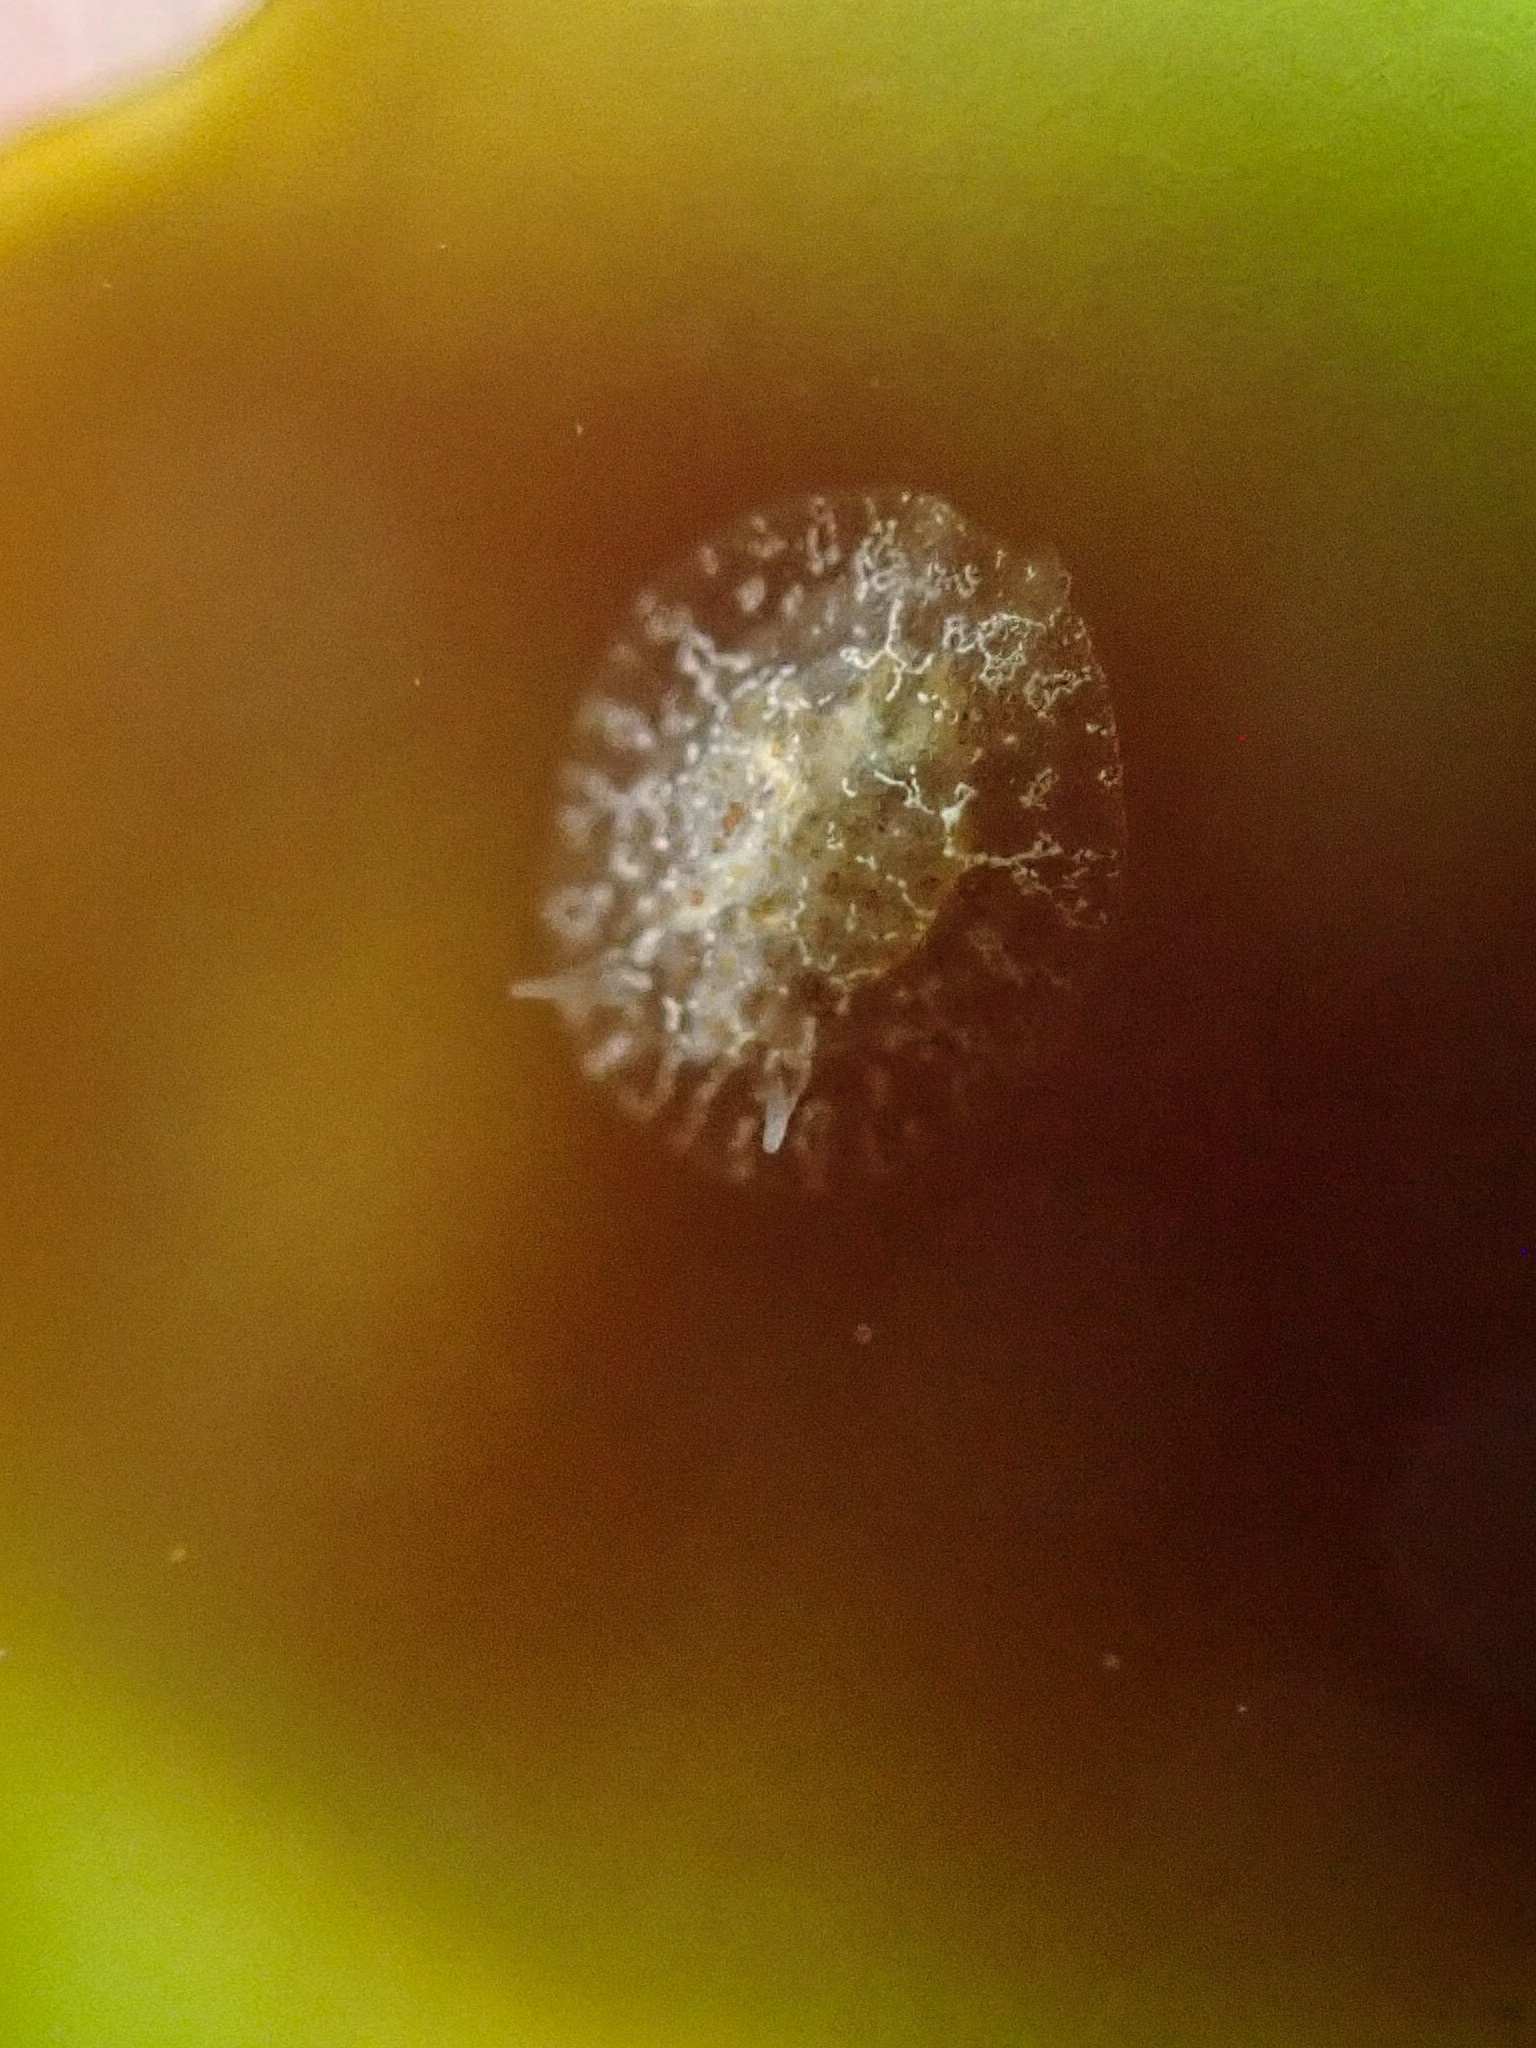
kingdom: Animalia
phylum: Mollusca
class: Gastropoda
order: Nudibranchia
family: Corambidae
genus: Corambe
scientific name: Corambe steinbergae
